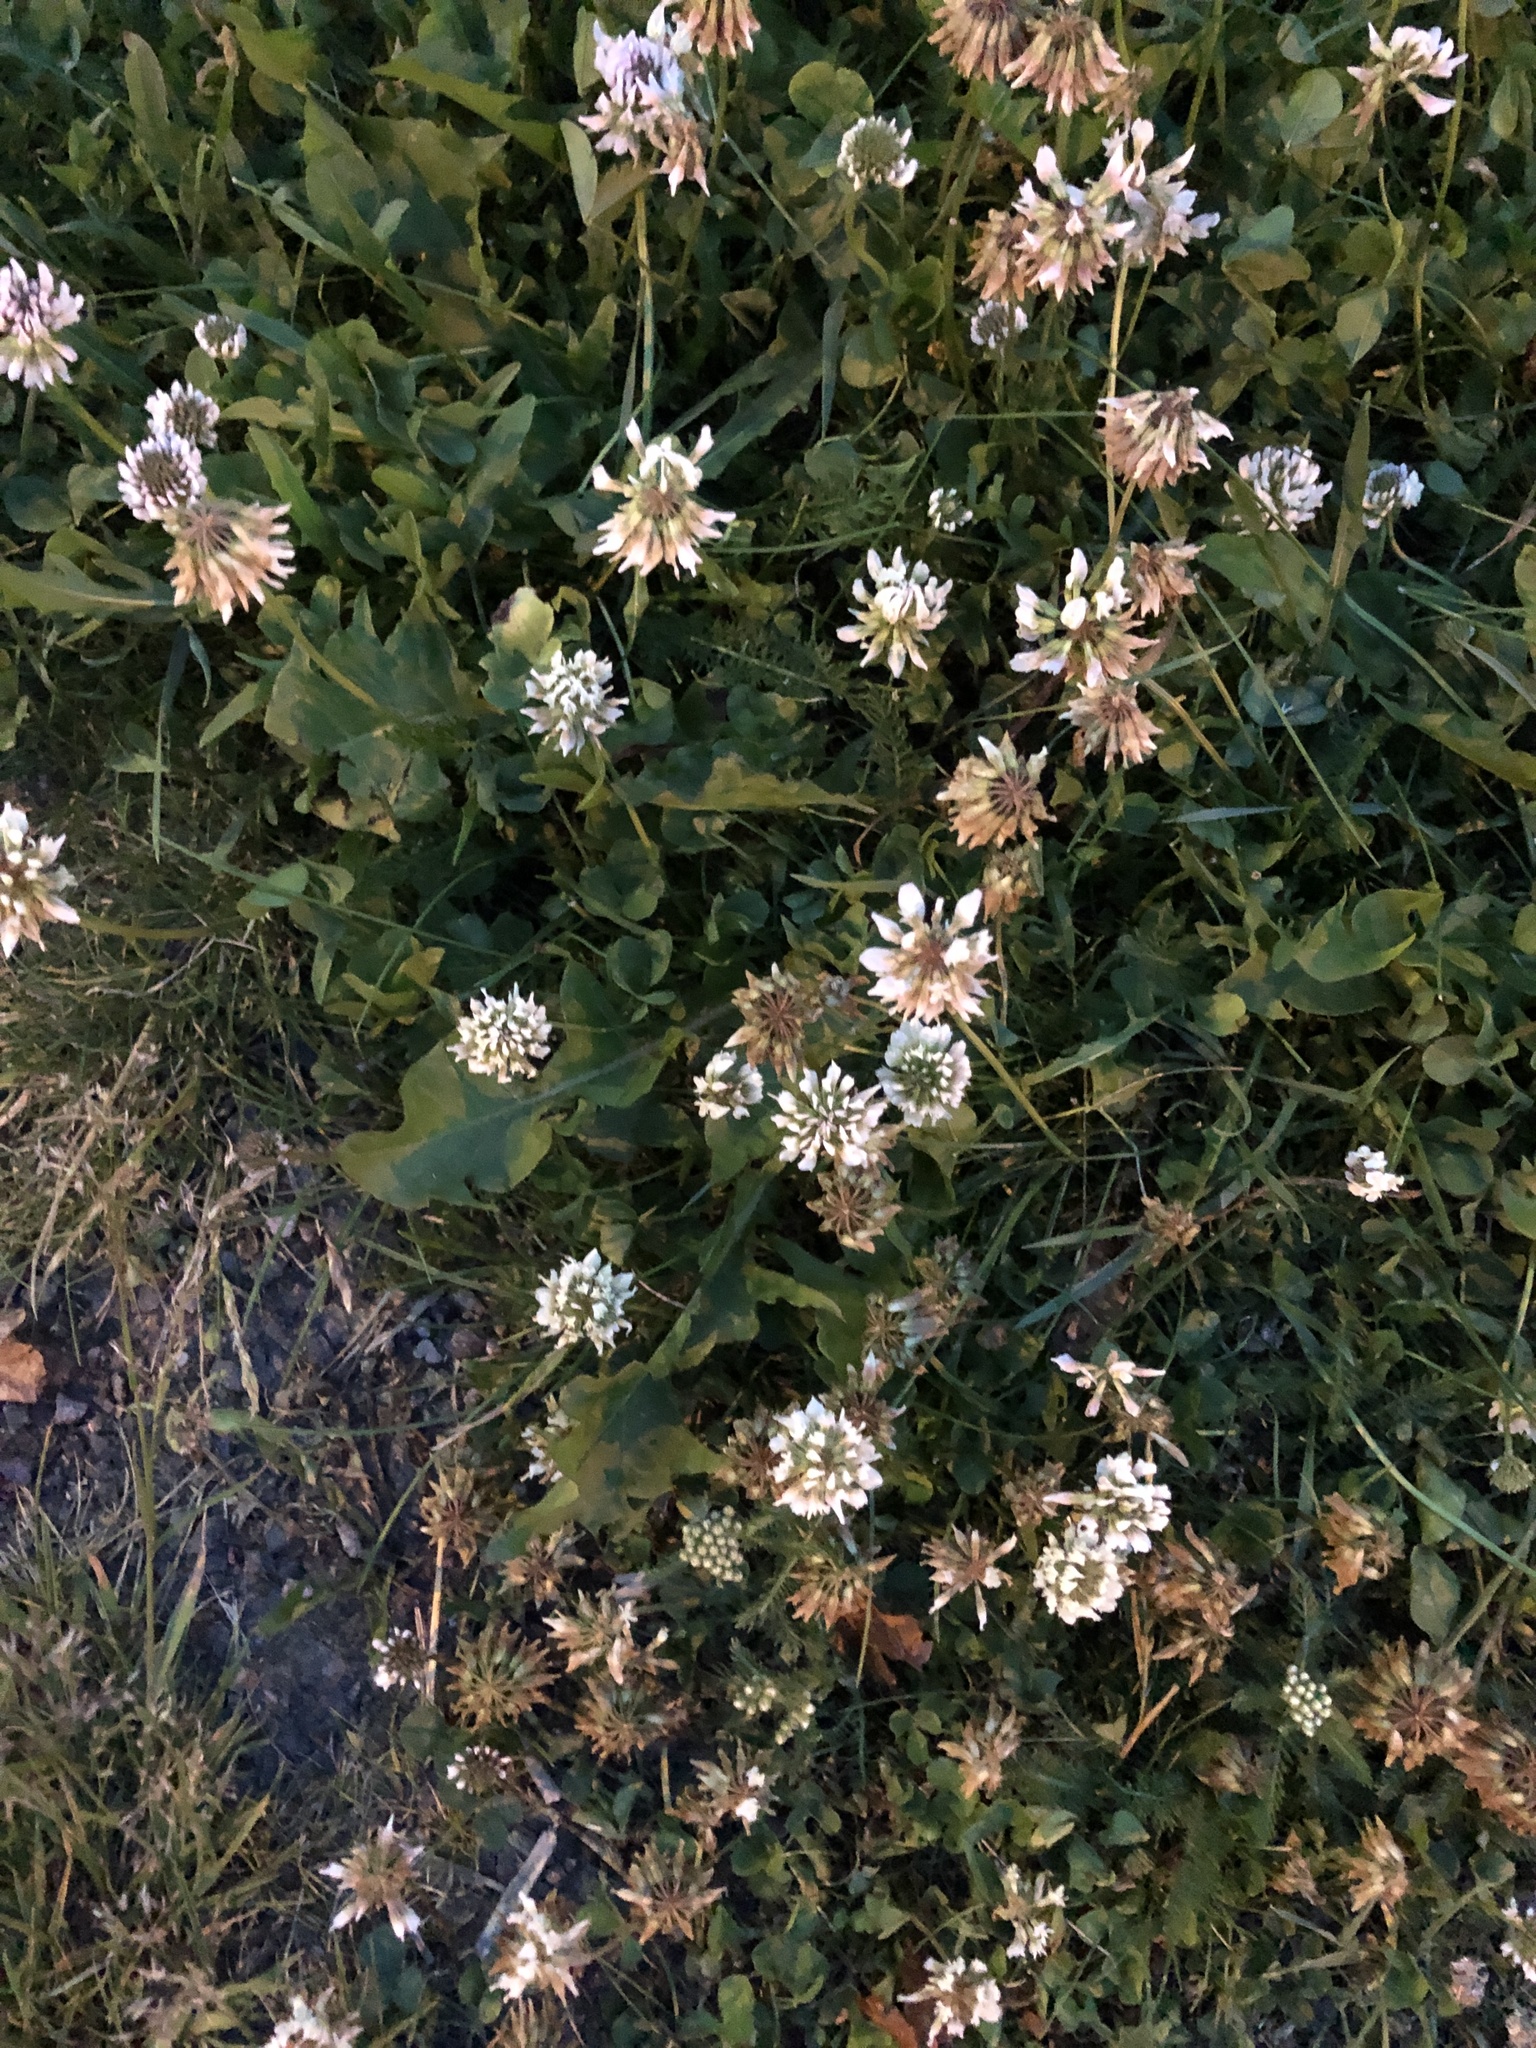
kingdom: Plantae
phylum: Tracheophyta
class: Magnoliopsida
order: Fabales
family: Fabaceae
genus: Trifolium
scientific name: Trifolium repens
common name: White clover
